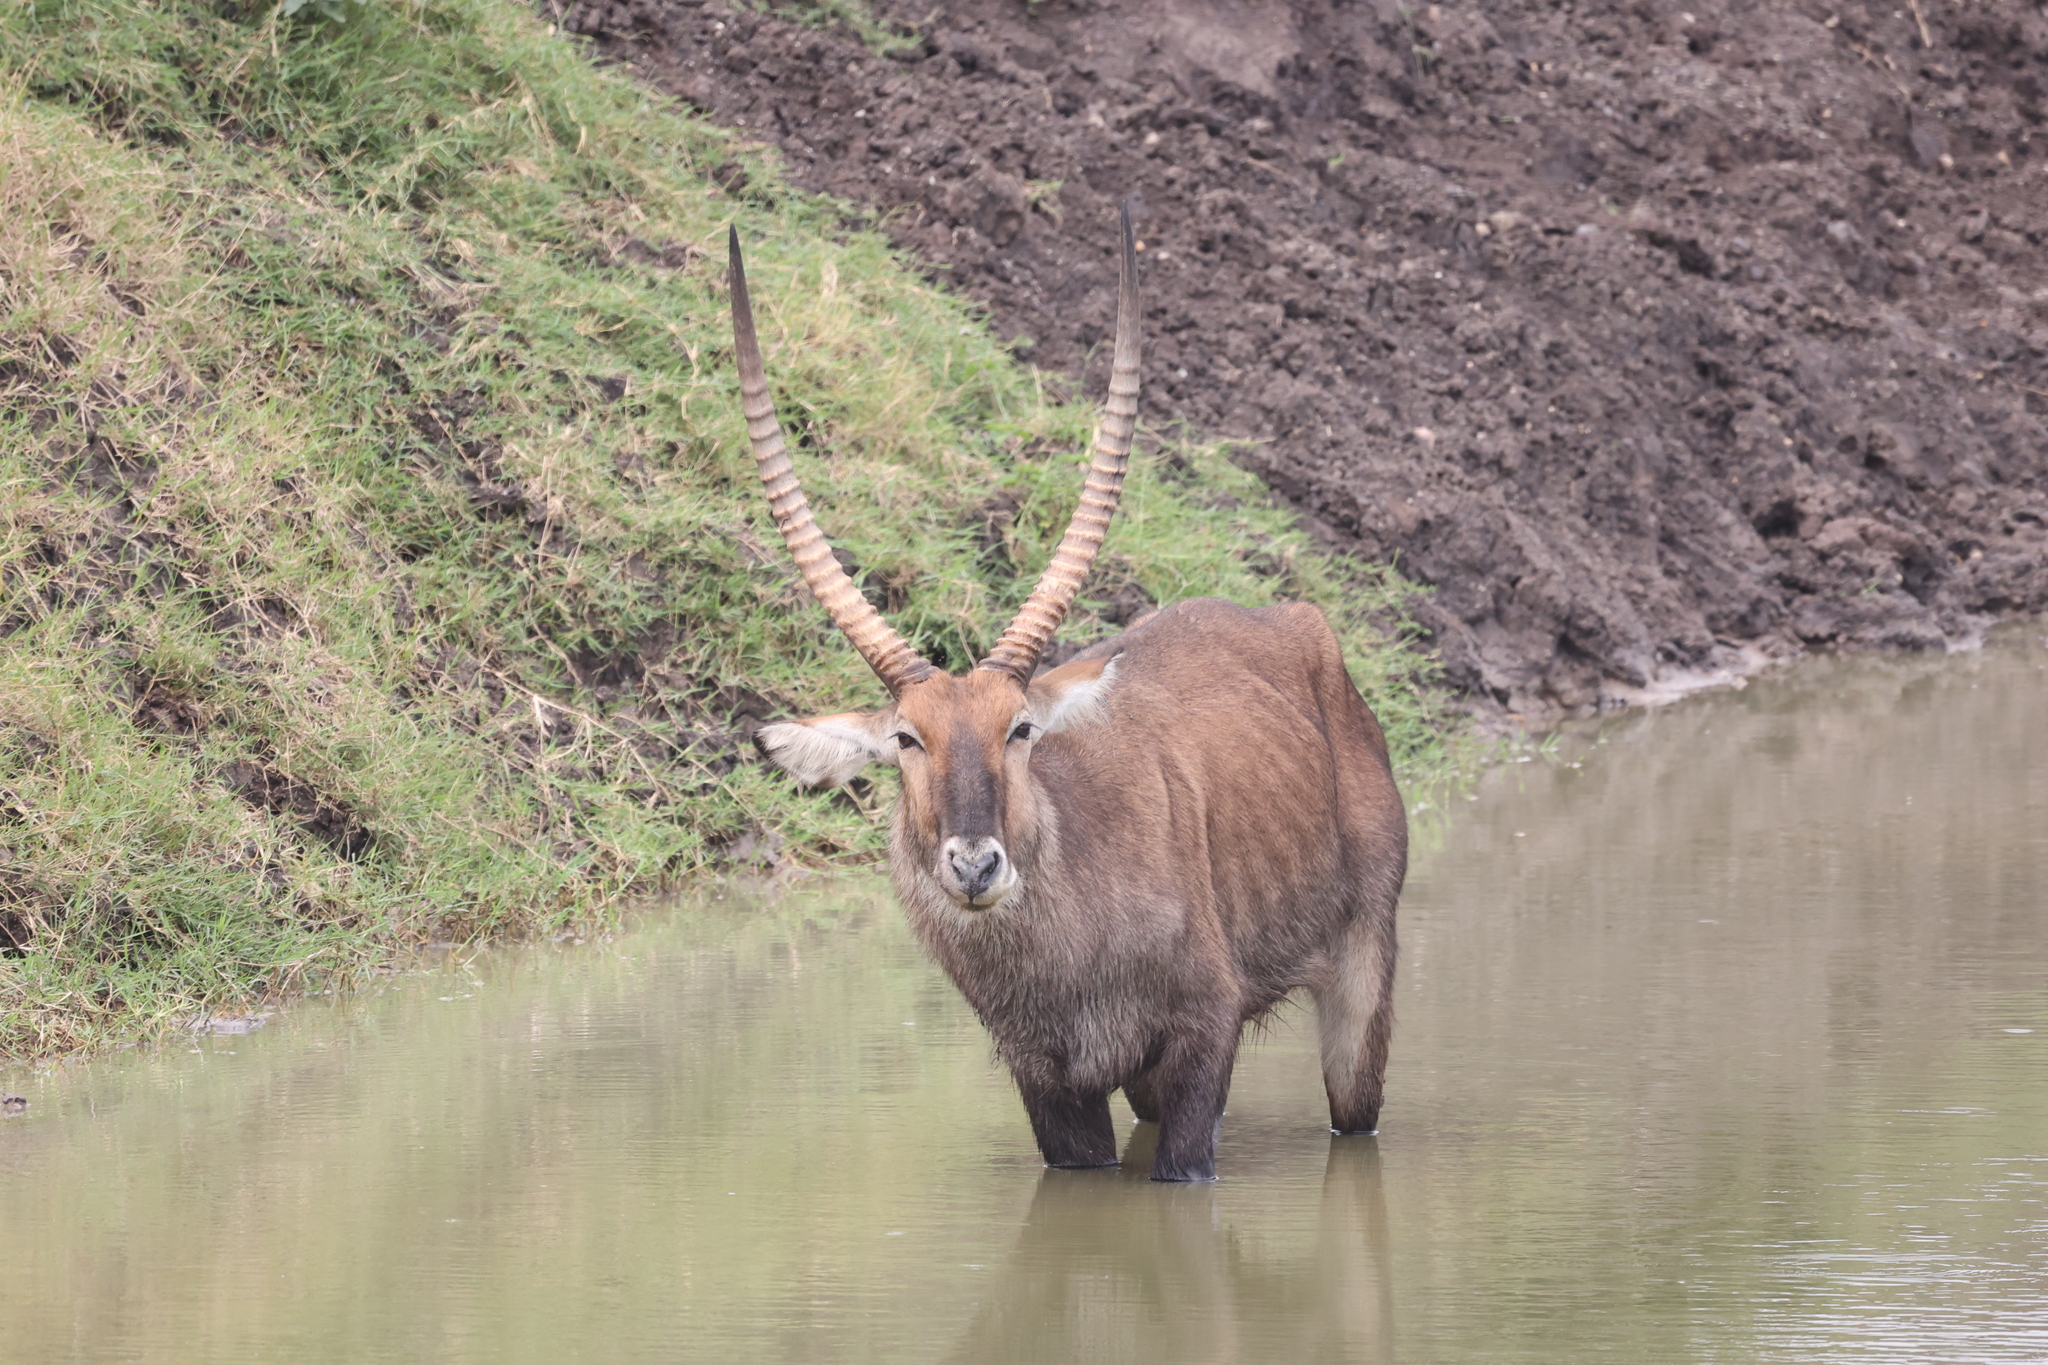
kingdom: Animalia
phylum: Chordata
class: Mammalia
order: Artiodactyla
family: Bovidae
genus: Kobus
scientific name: Kobus ellipsiprymnus
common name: Waterbuck
